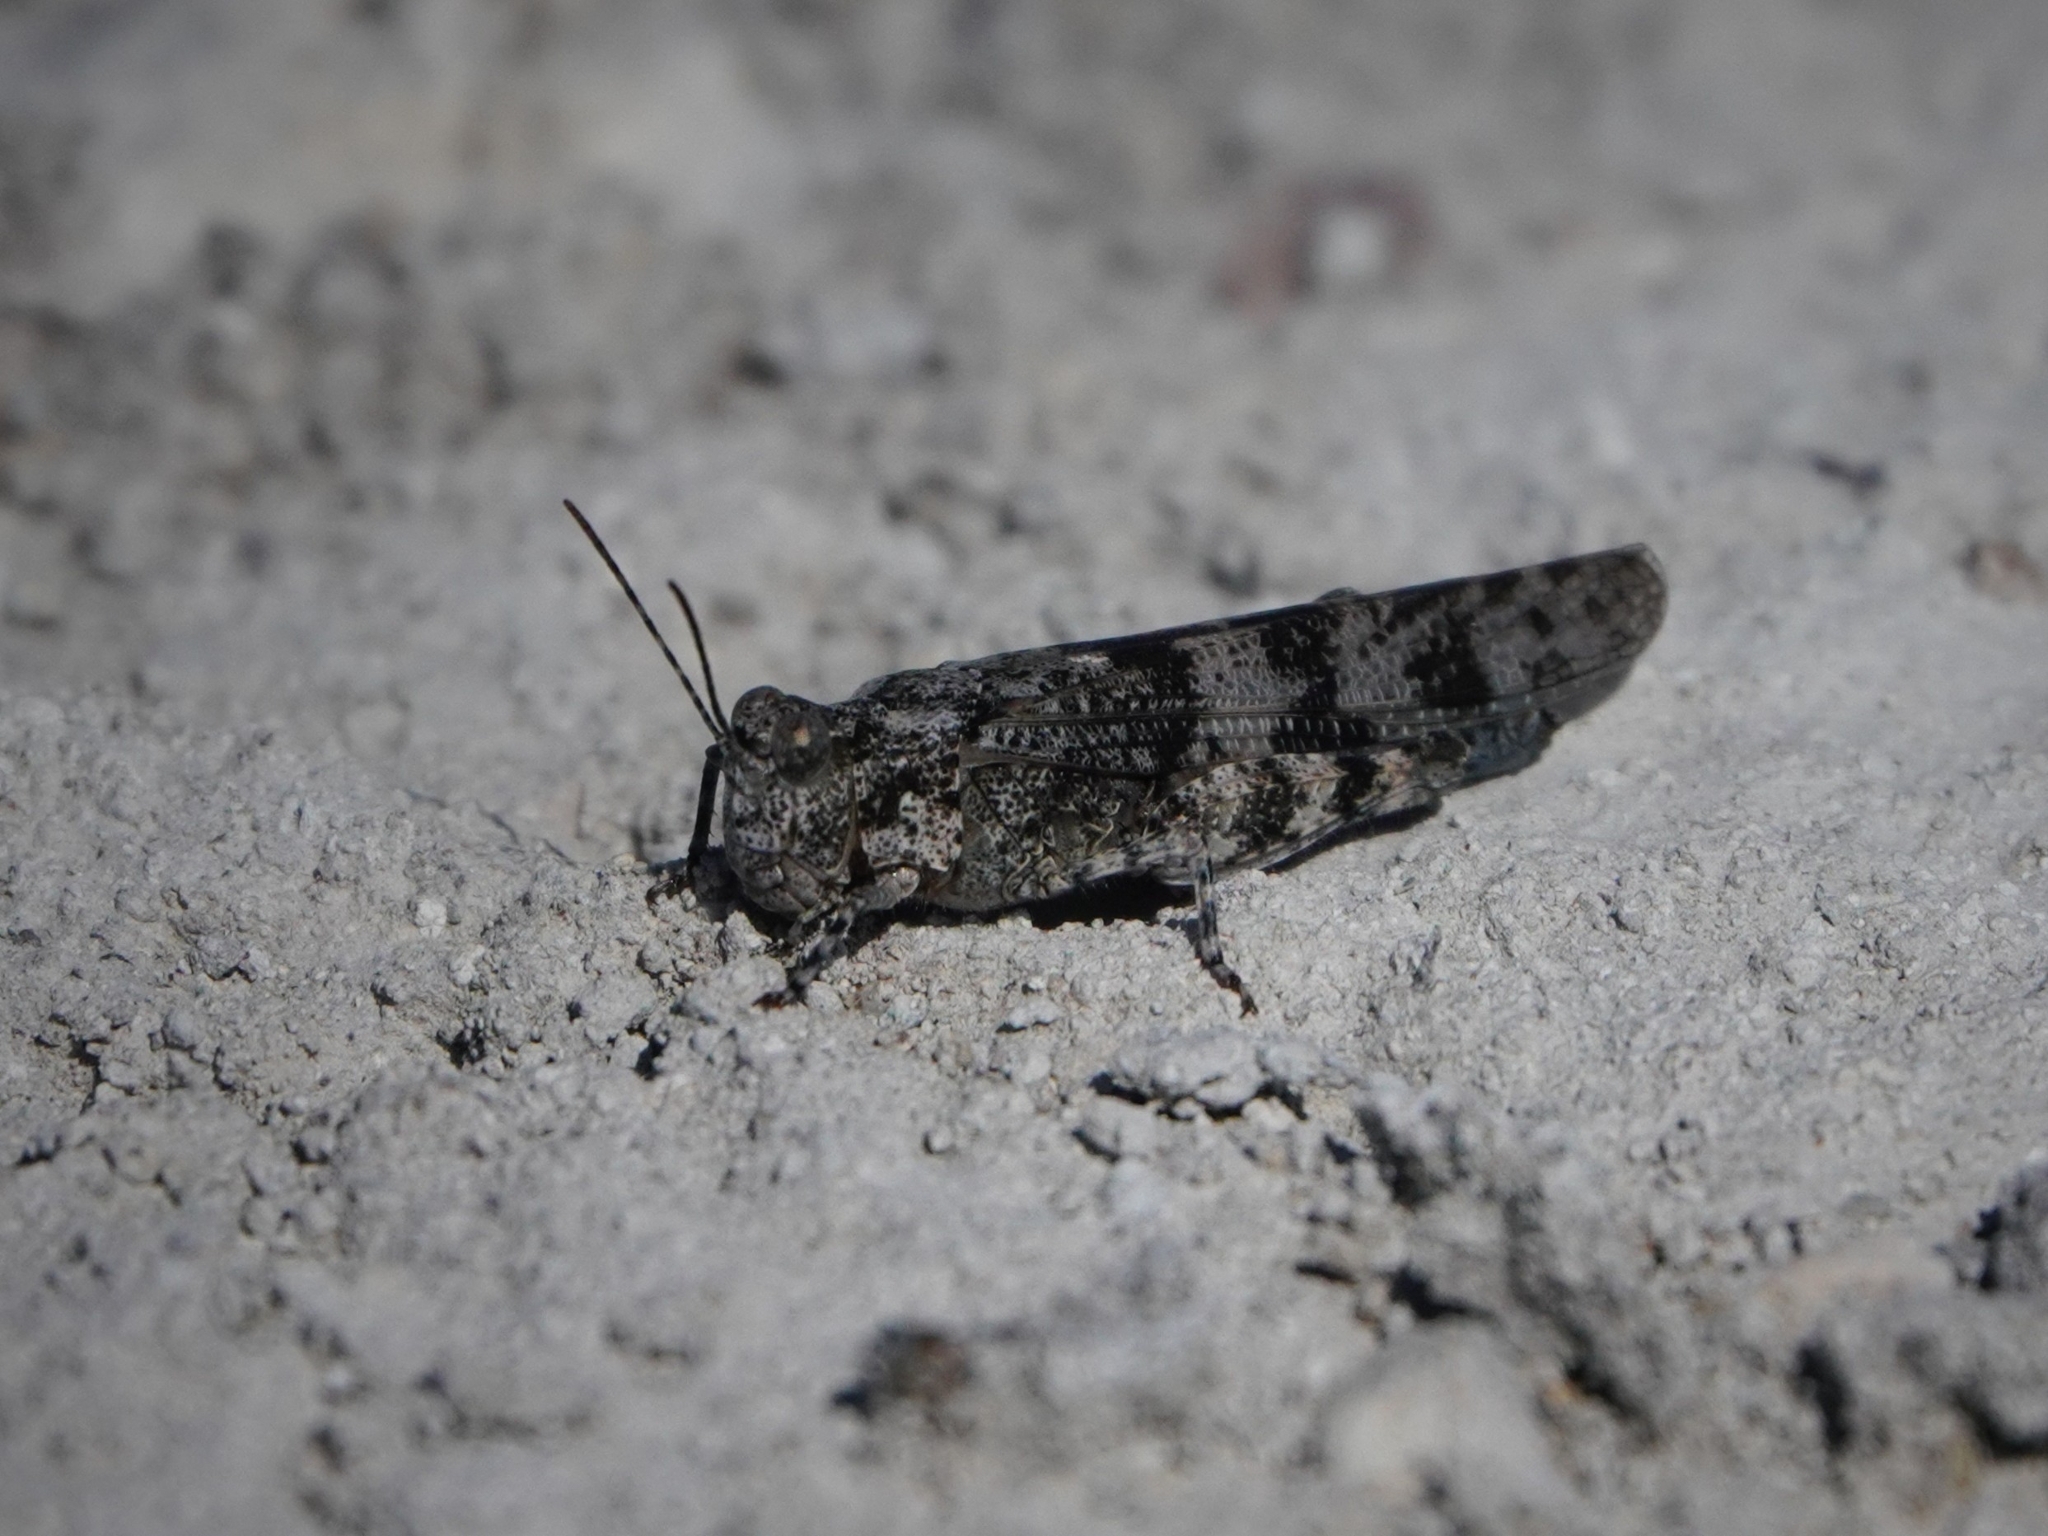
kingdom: Animalia
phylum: Arthropoda
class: Insecta
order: Orthoptera
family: Acrididae
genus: Sphingonotus
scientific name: Sphingonotus caerulans
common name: Blue-winged locust
